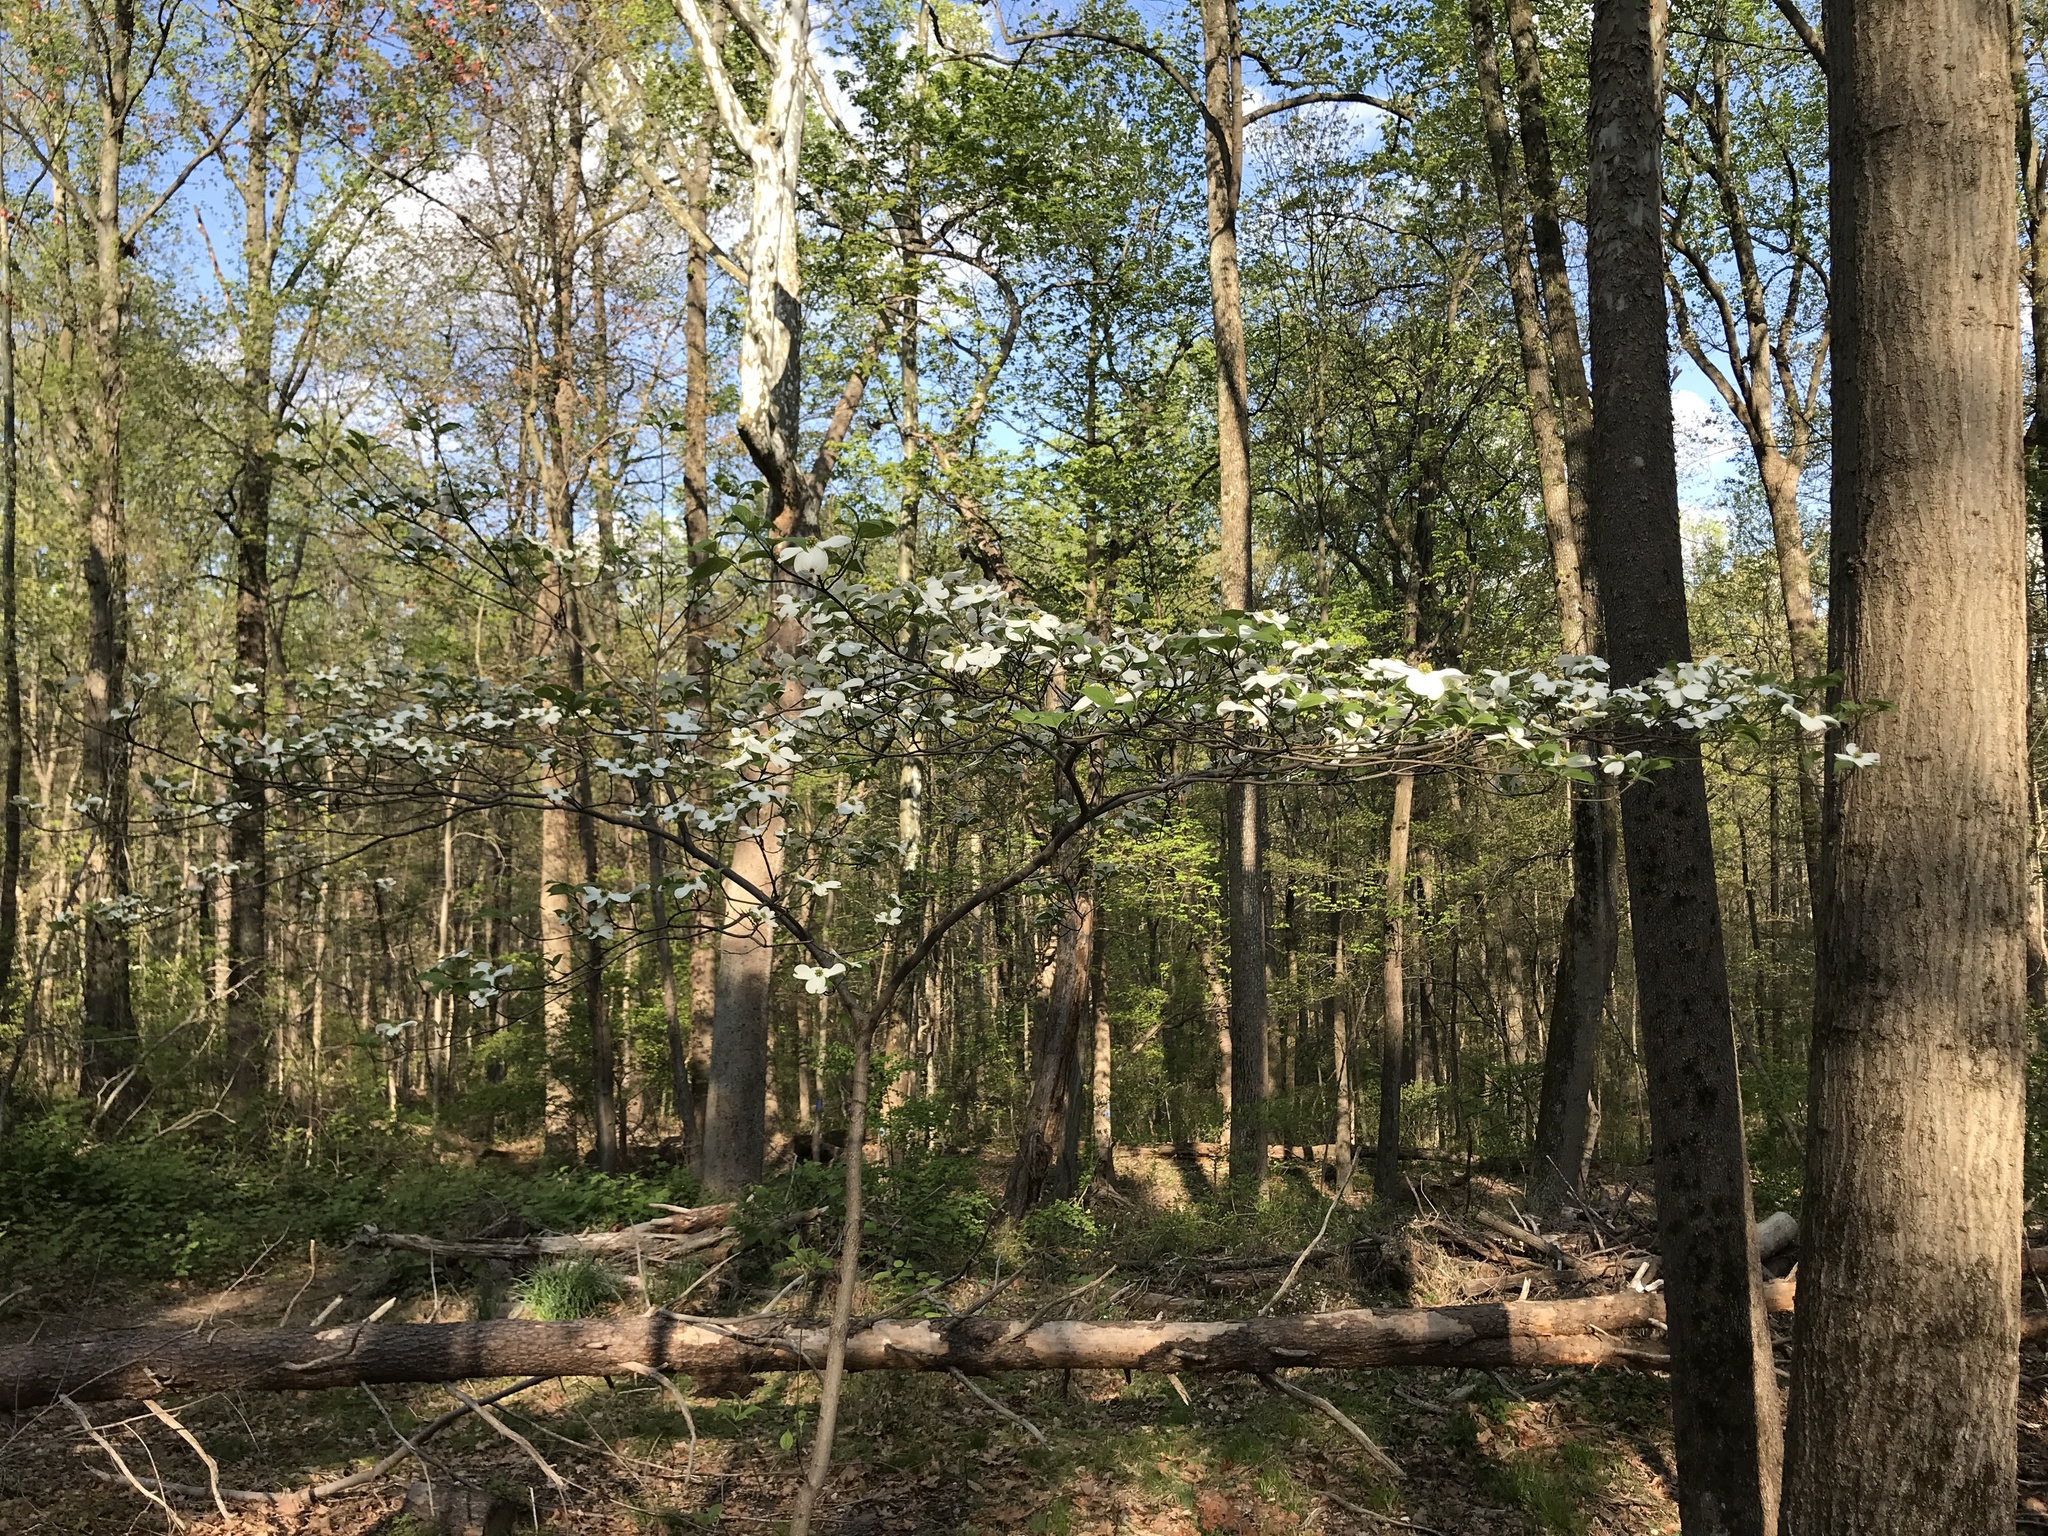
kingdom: Plantae
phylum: Tracheophyta
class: Magnoliopsida
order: Cornales
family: Cornaceae
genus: Cornus
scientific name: Cornus florida
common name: Flowering dogwood
